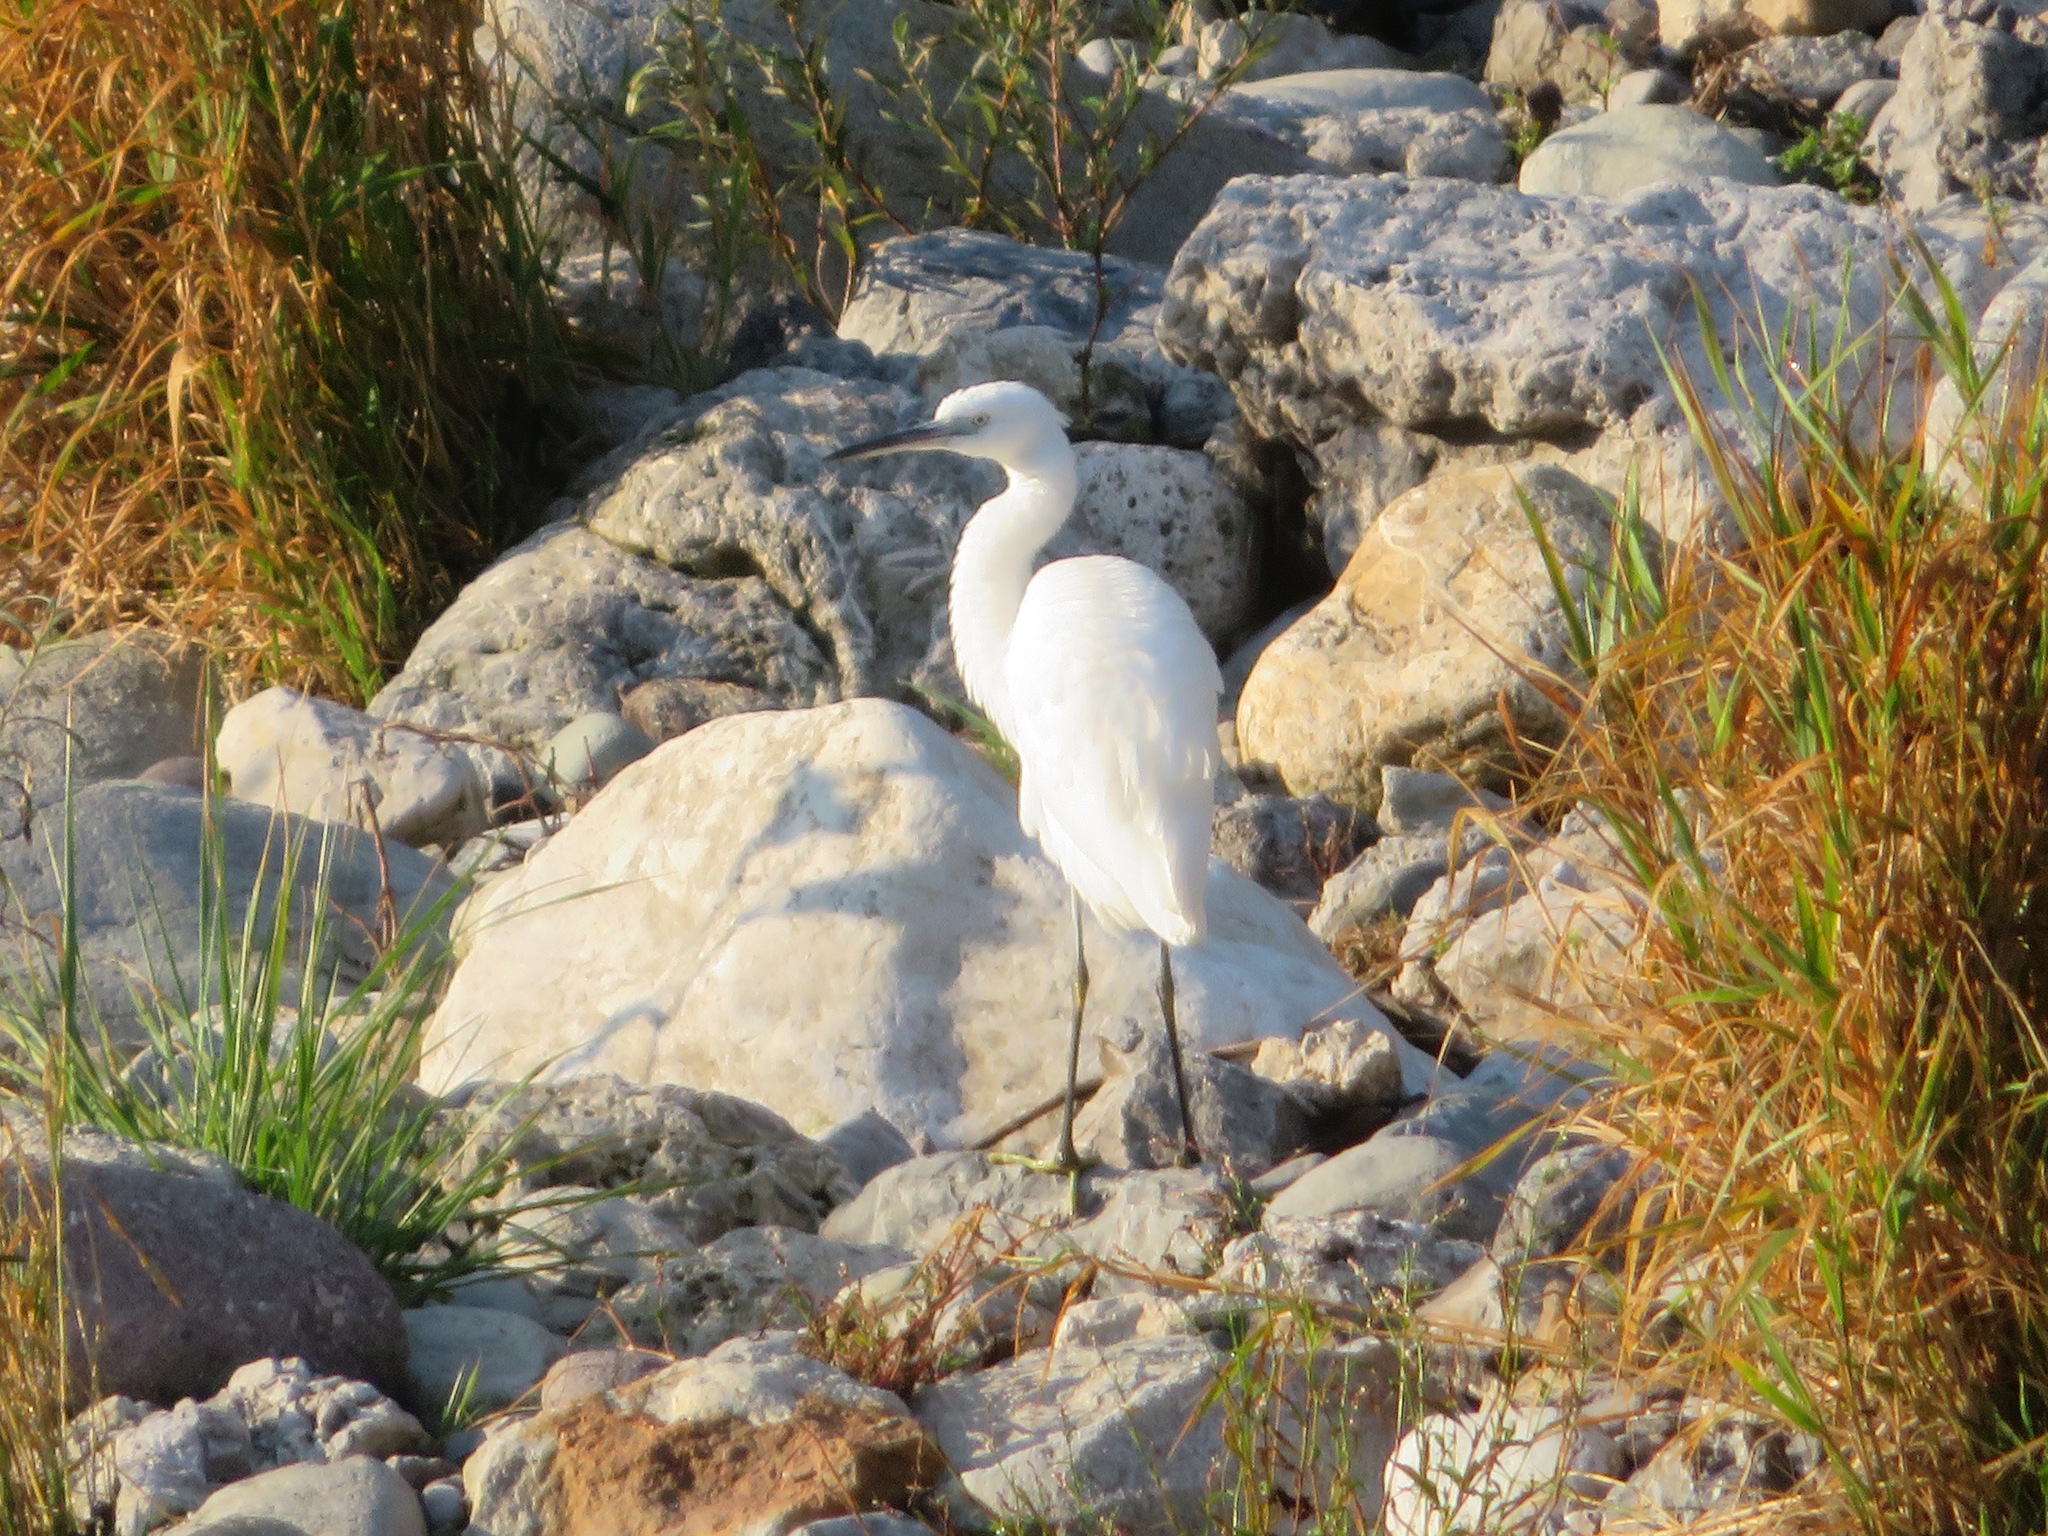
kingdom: Animalia
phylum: Chordata
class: Aves
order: Pelecaniformes
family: Ardeidae
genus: Egretta
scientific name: Egretta garzetta
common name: Little egret
